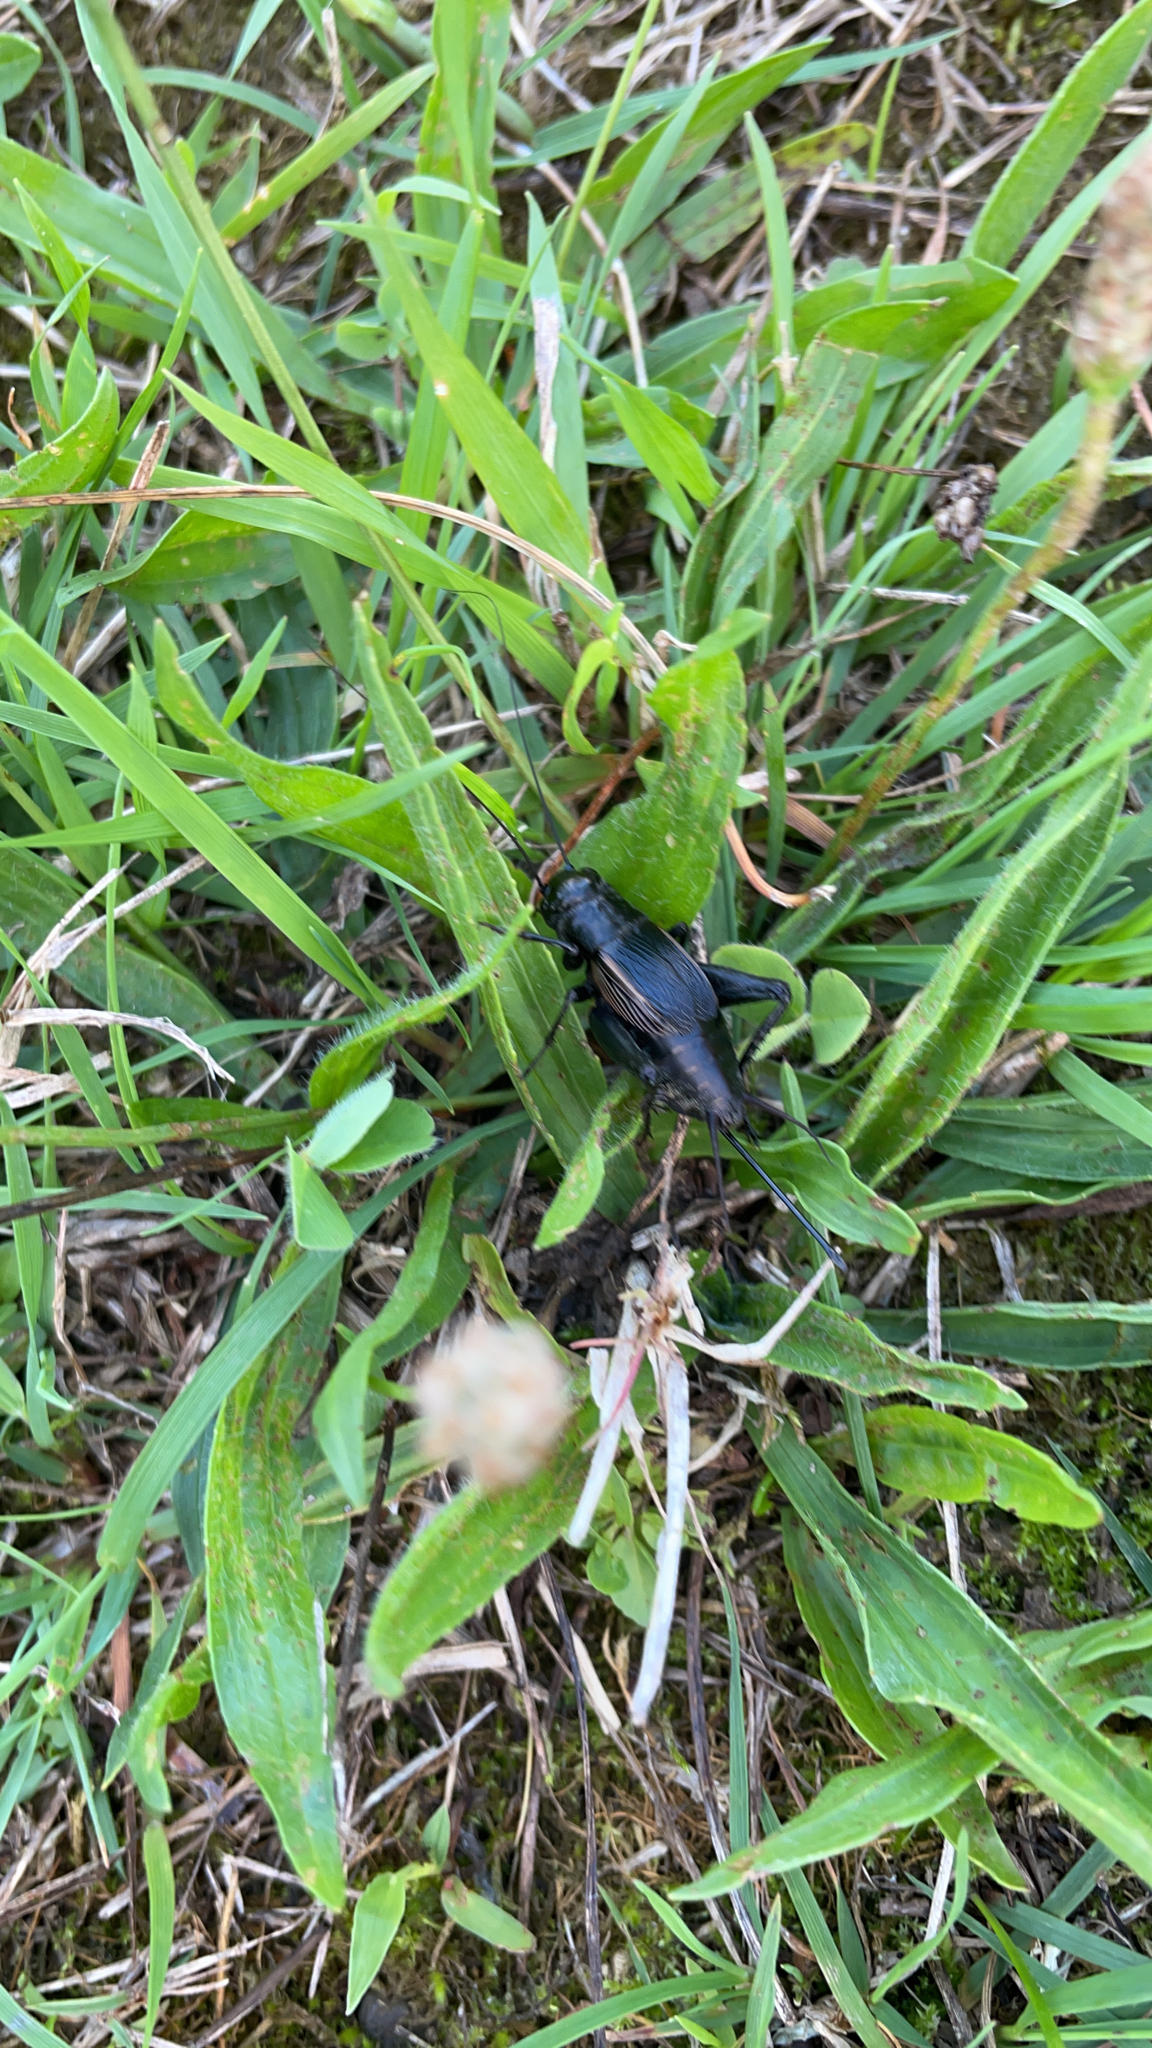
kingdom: Animalia
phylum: Arthropoda
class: Insecta
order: Orthoptera
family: Gryllidae
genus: Gryllus
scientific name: Gryllus pennsylvanicus
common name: Fall field cricket
